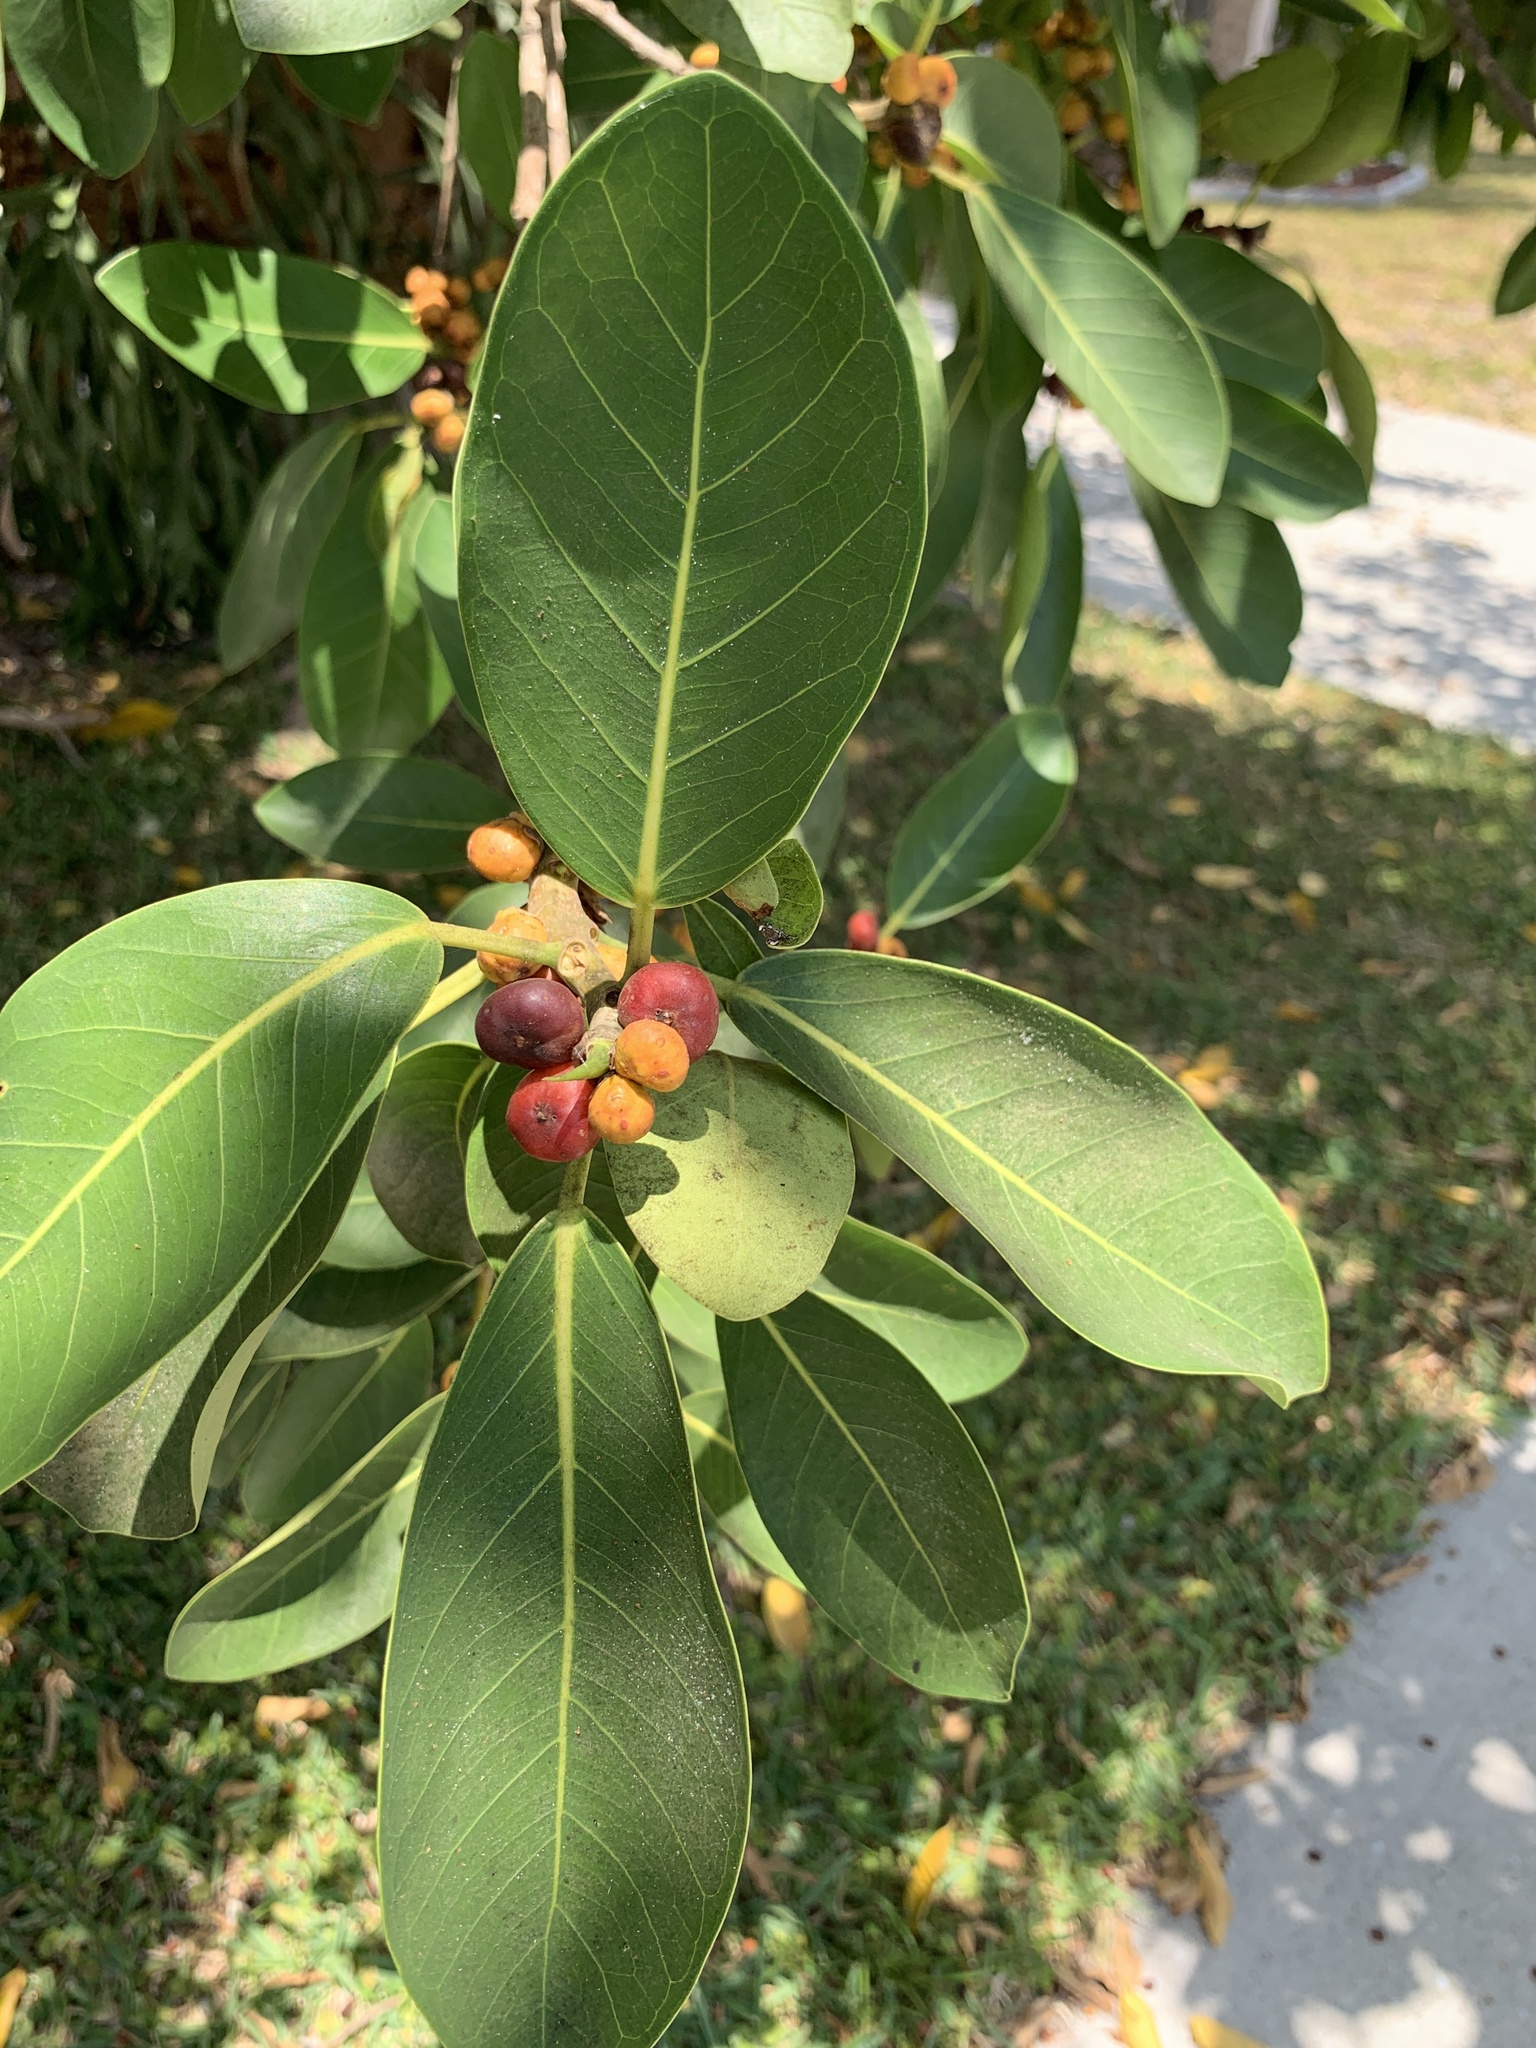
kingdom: Plantae
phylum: Tracheophyta
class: Magnoliopsida
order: Rosales
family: Moraceae
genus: Ficus
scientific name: Ficus aurea
